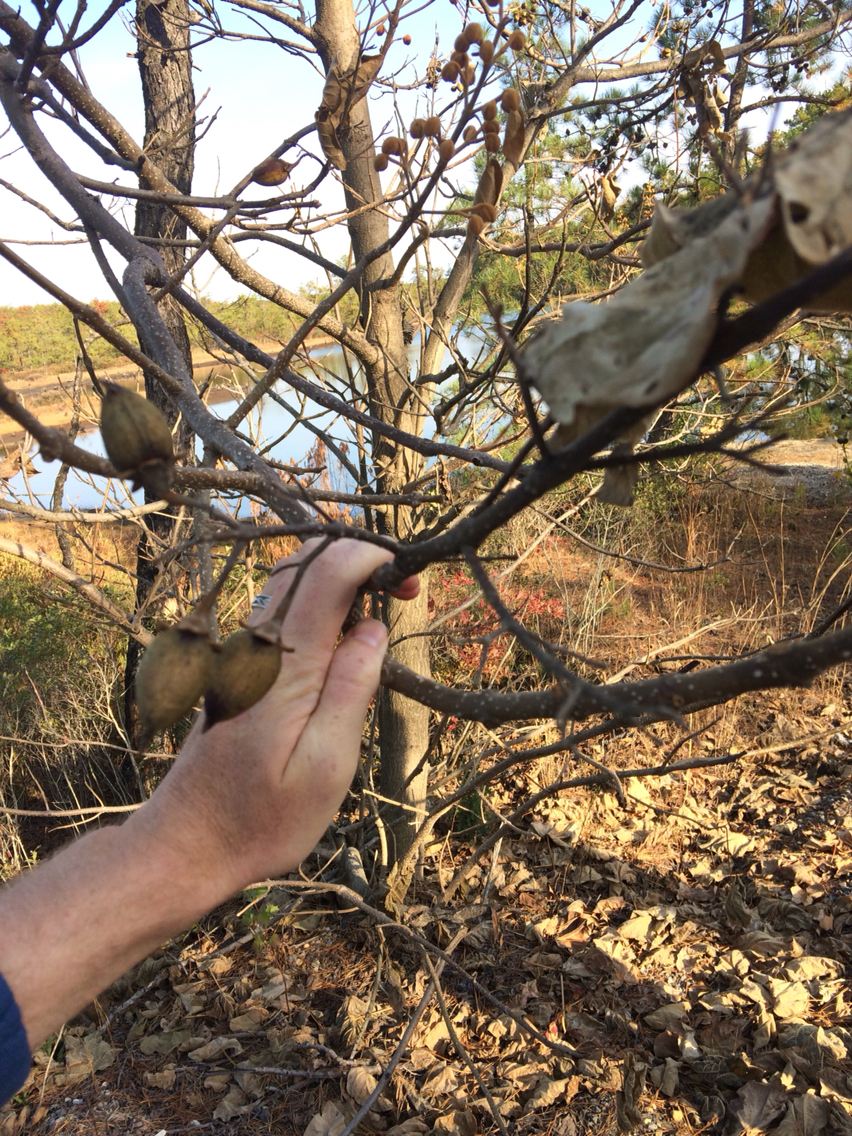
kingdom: Plantae
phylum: Tracheophyta
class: Magnoliopsida
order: Lamiales
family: Paulowniaceae
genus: Paulownia
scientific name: Paulownia tomentosa
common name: Foxglove-tree
